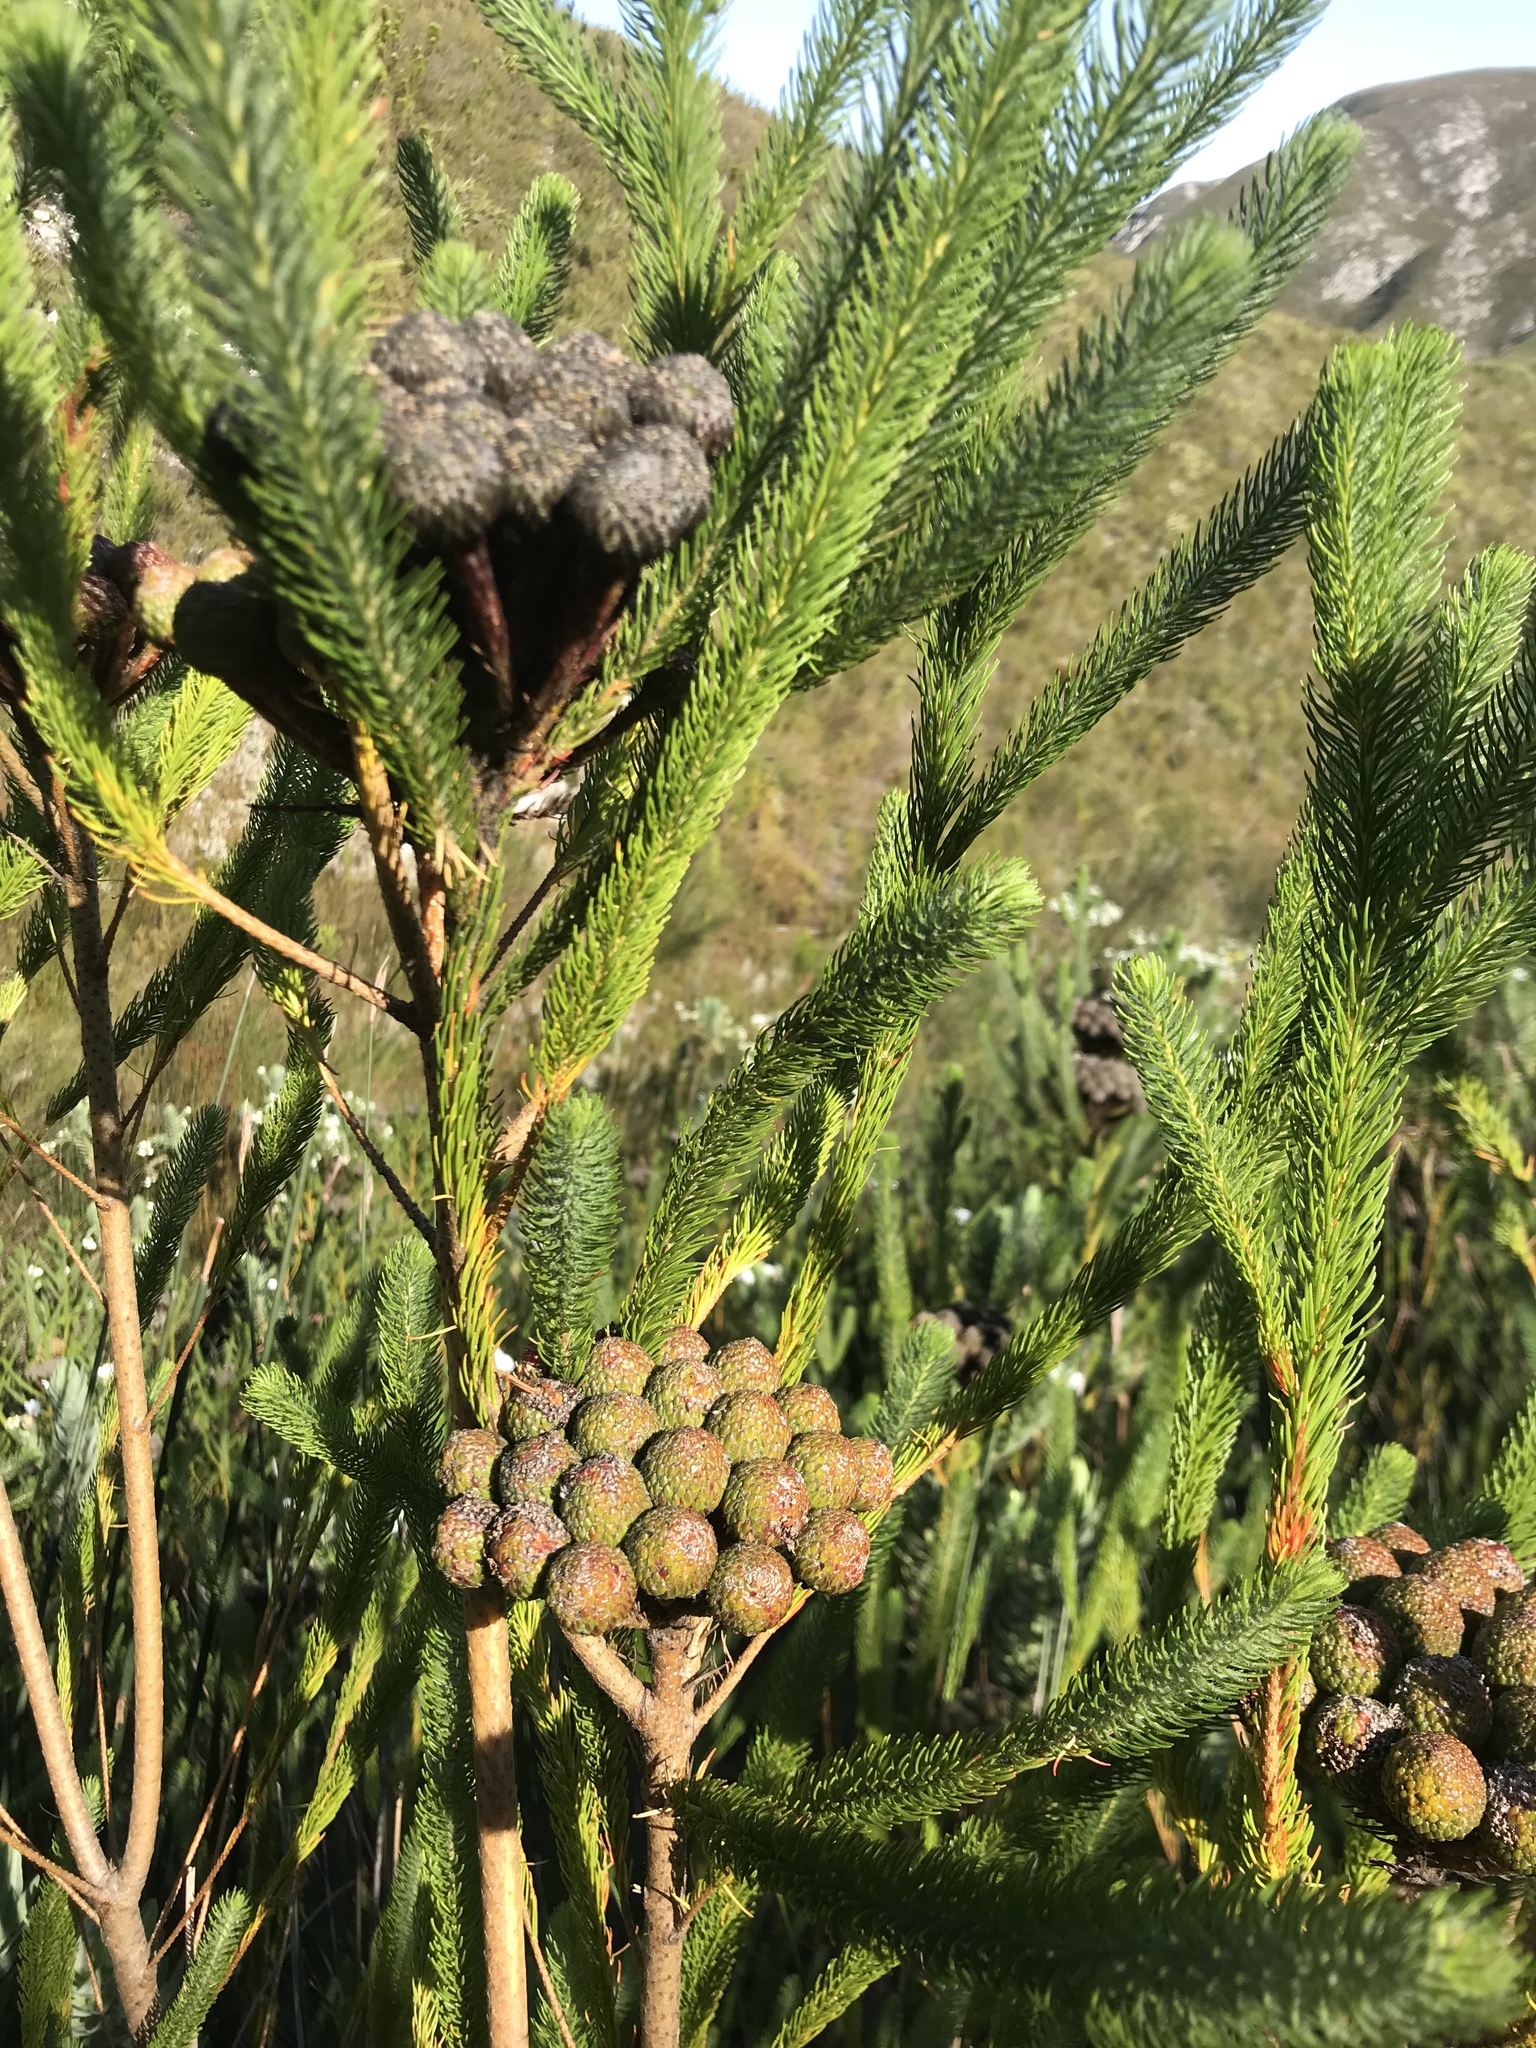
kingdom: Plantae
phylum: Tracheophyta
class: Magnoliopsida
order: Bruniales
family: Bruniaceae
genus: Berzelia
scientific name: Berzelia albiflora
